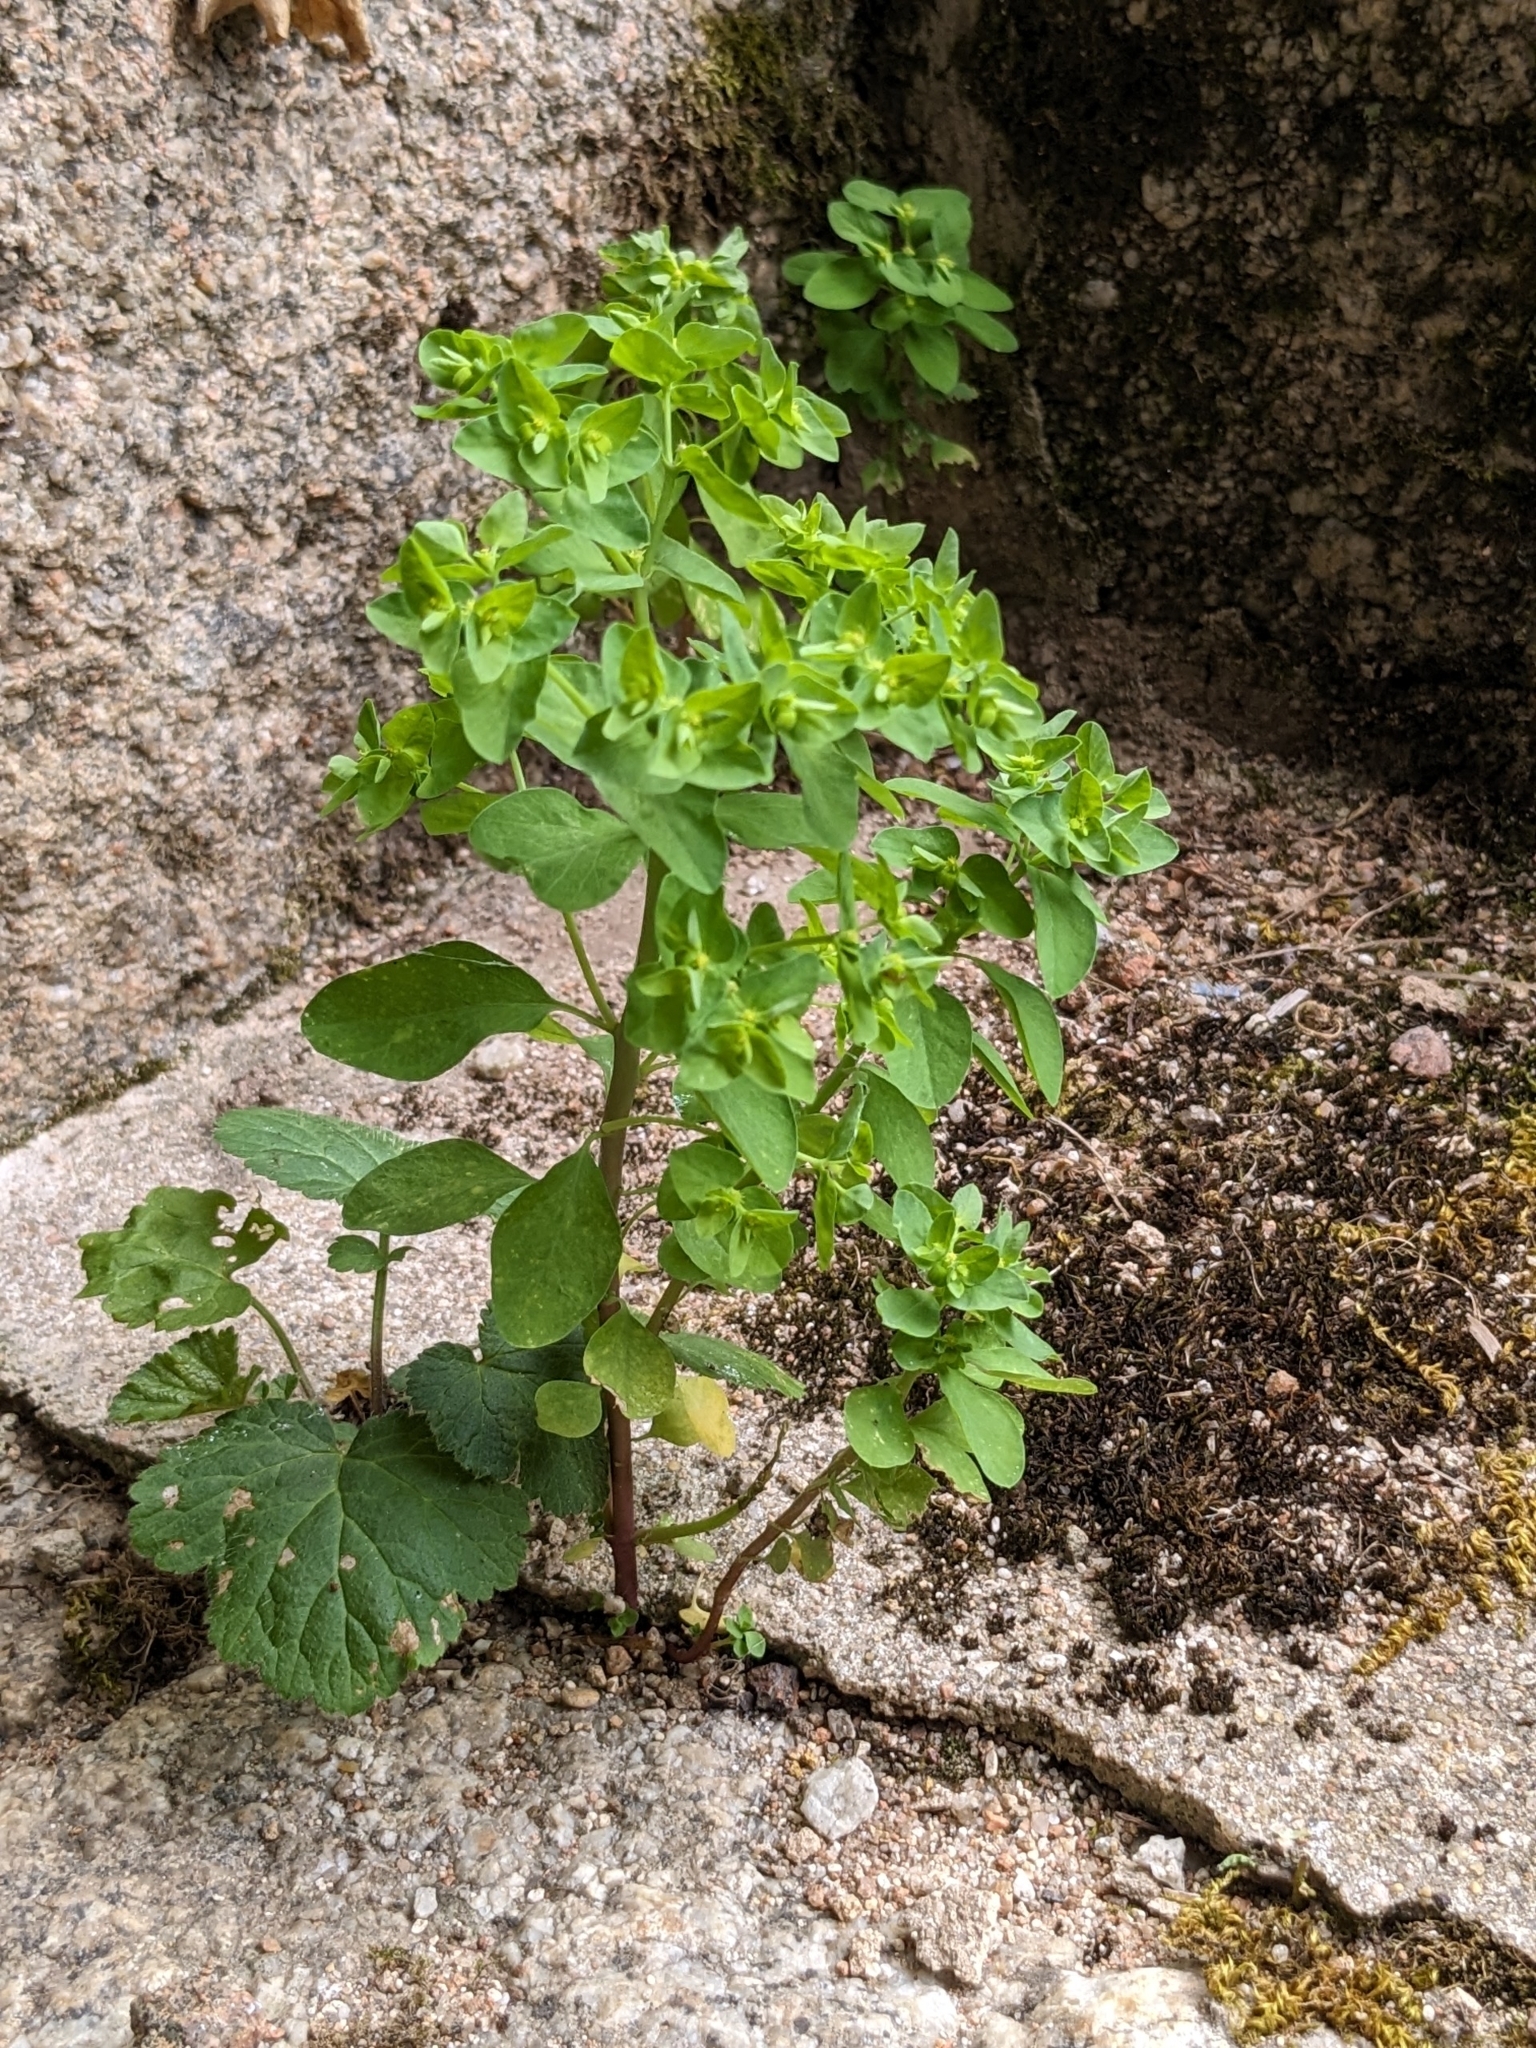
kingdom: Plantae
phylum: Tracheophyta
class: Magnoliopsida
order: Malpighiales
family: Euphorbiaceae
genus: Euphorbia
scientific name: Euphorbia peplus
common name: Petty spurge
